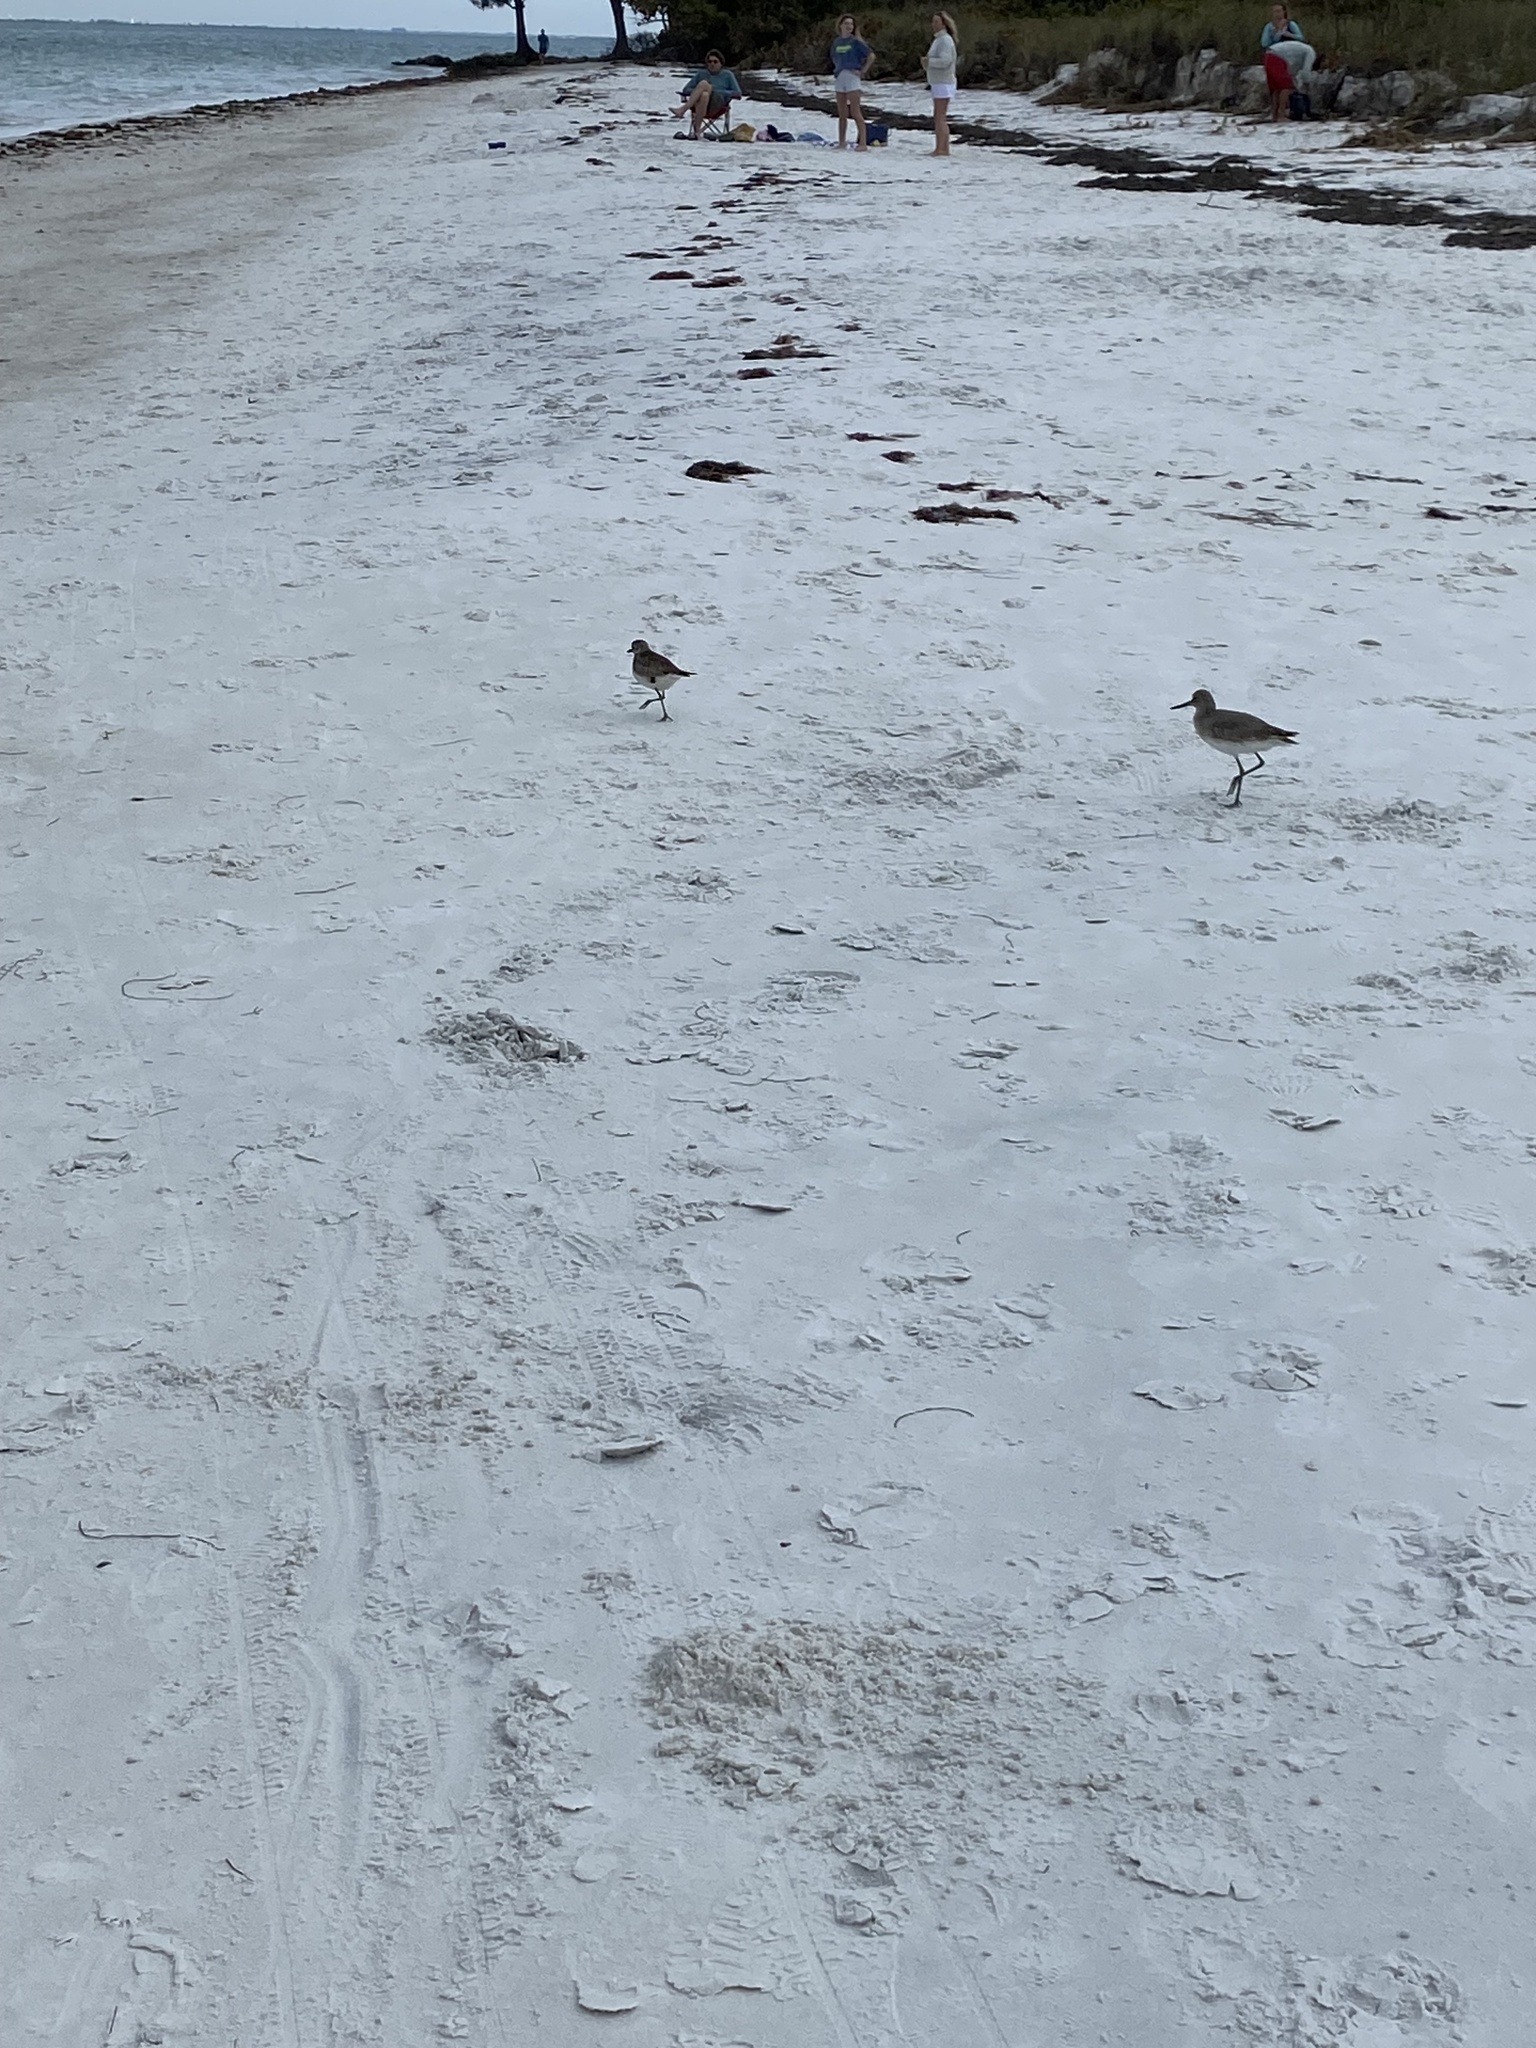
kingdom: Animalia
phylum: Chordata
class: Aves
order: Charadriiformes
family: Scolopacidae
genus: Tringa
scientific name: Tringa semipalmata
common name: Willet
